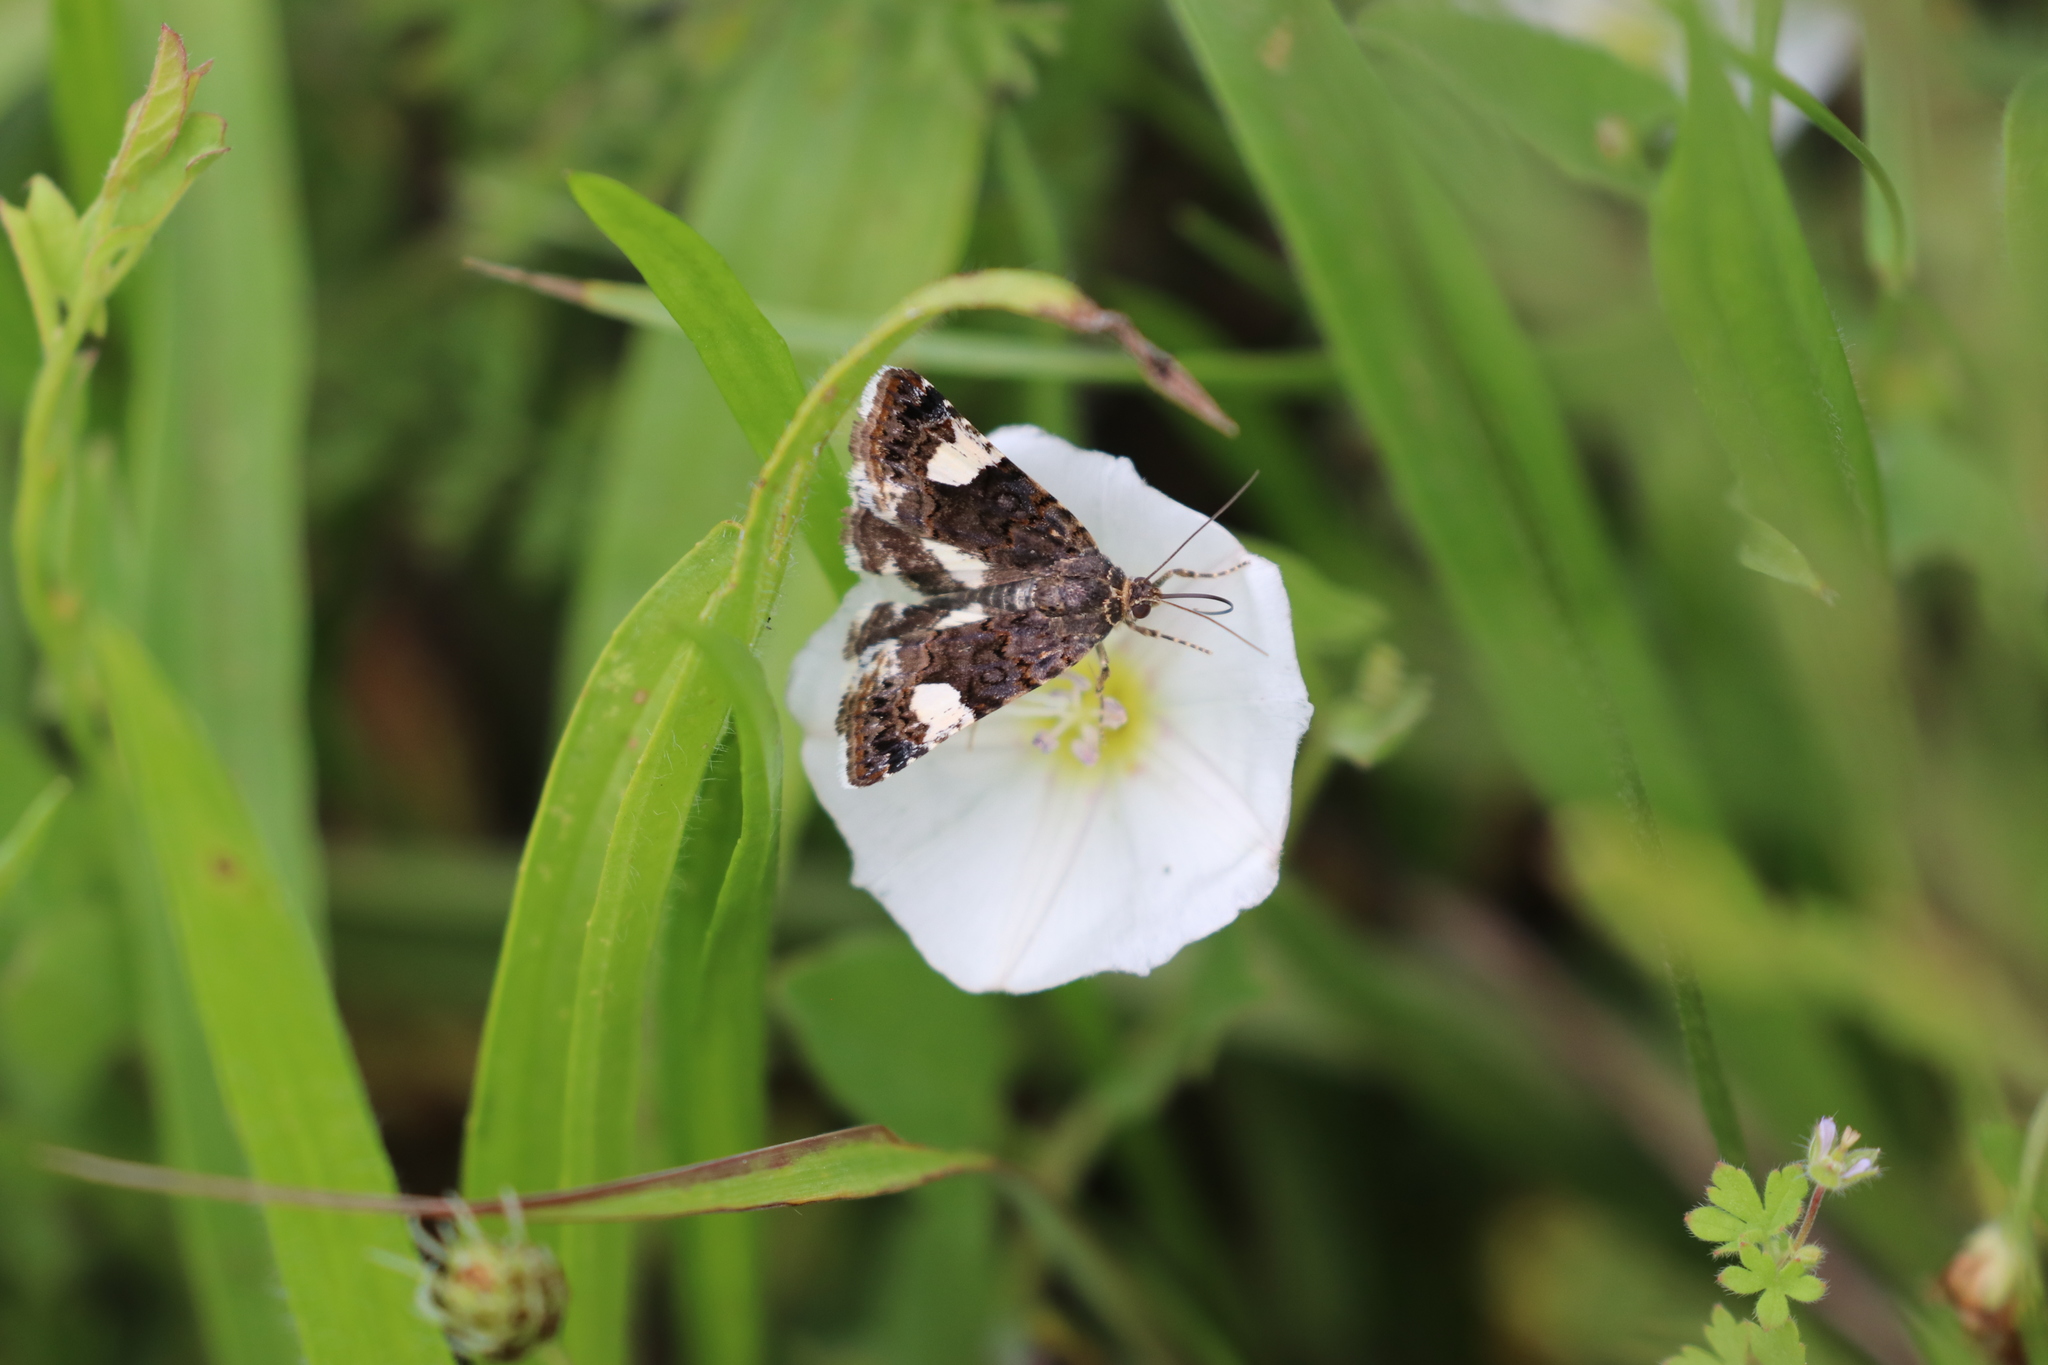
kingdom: Animalia
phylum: Arthropoda
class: Insecta
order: Lepidoptera
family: Erebidae
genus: Tyta
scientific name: Tyta luctuosa
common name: Four-spotted
